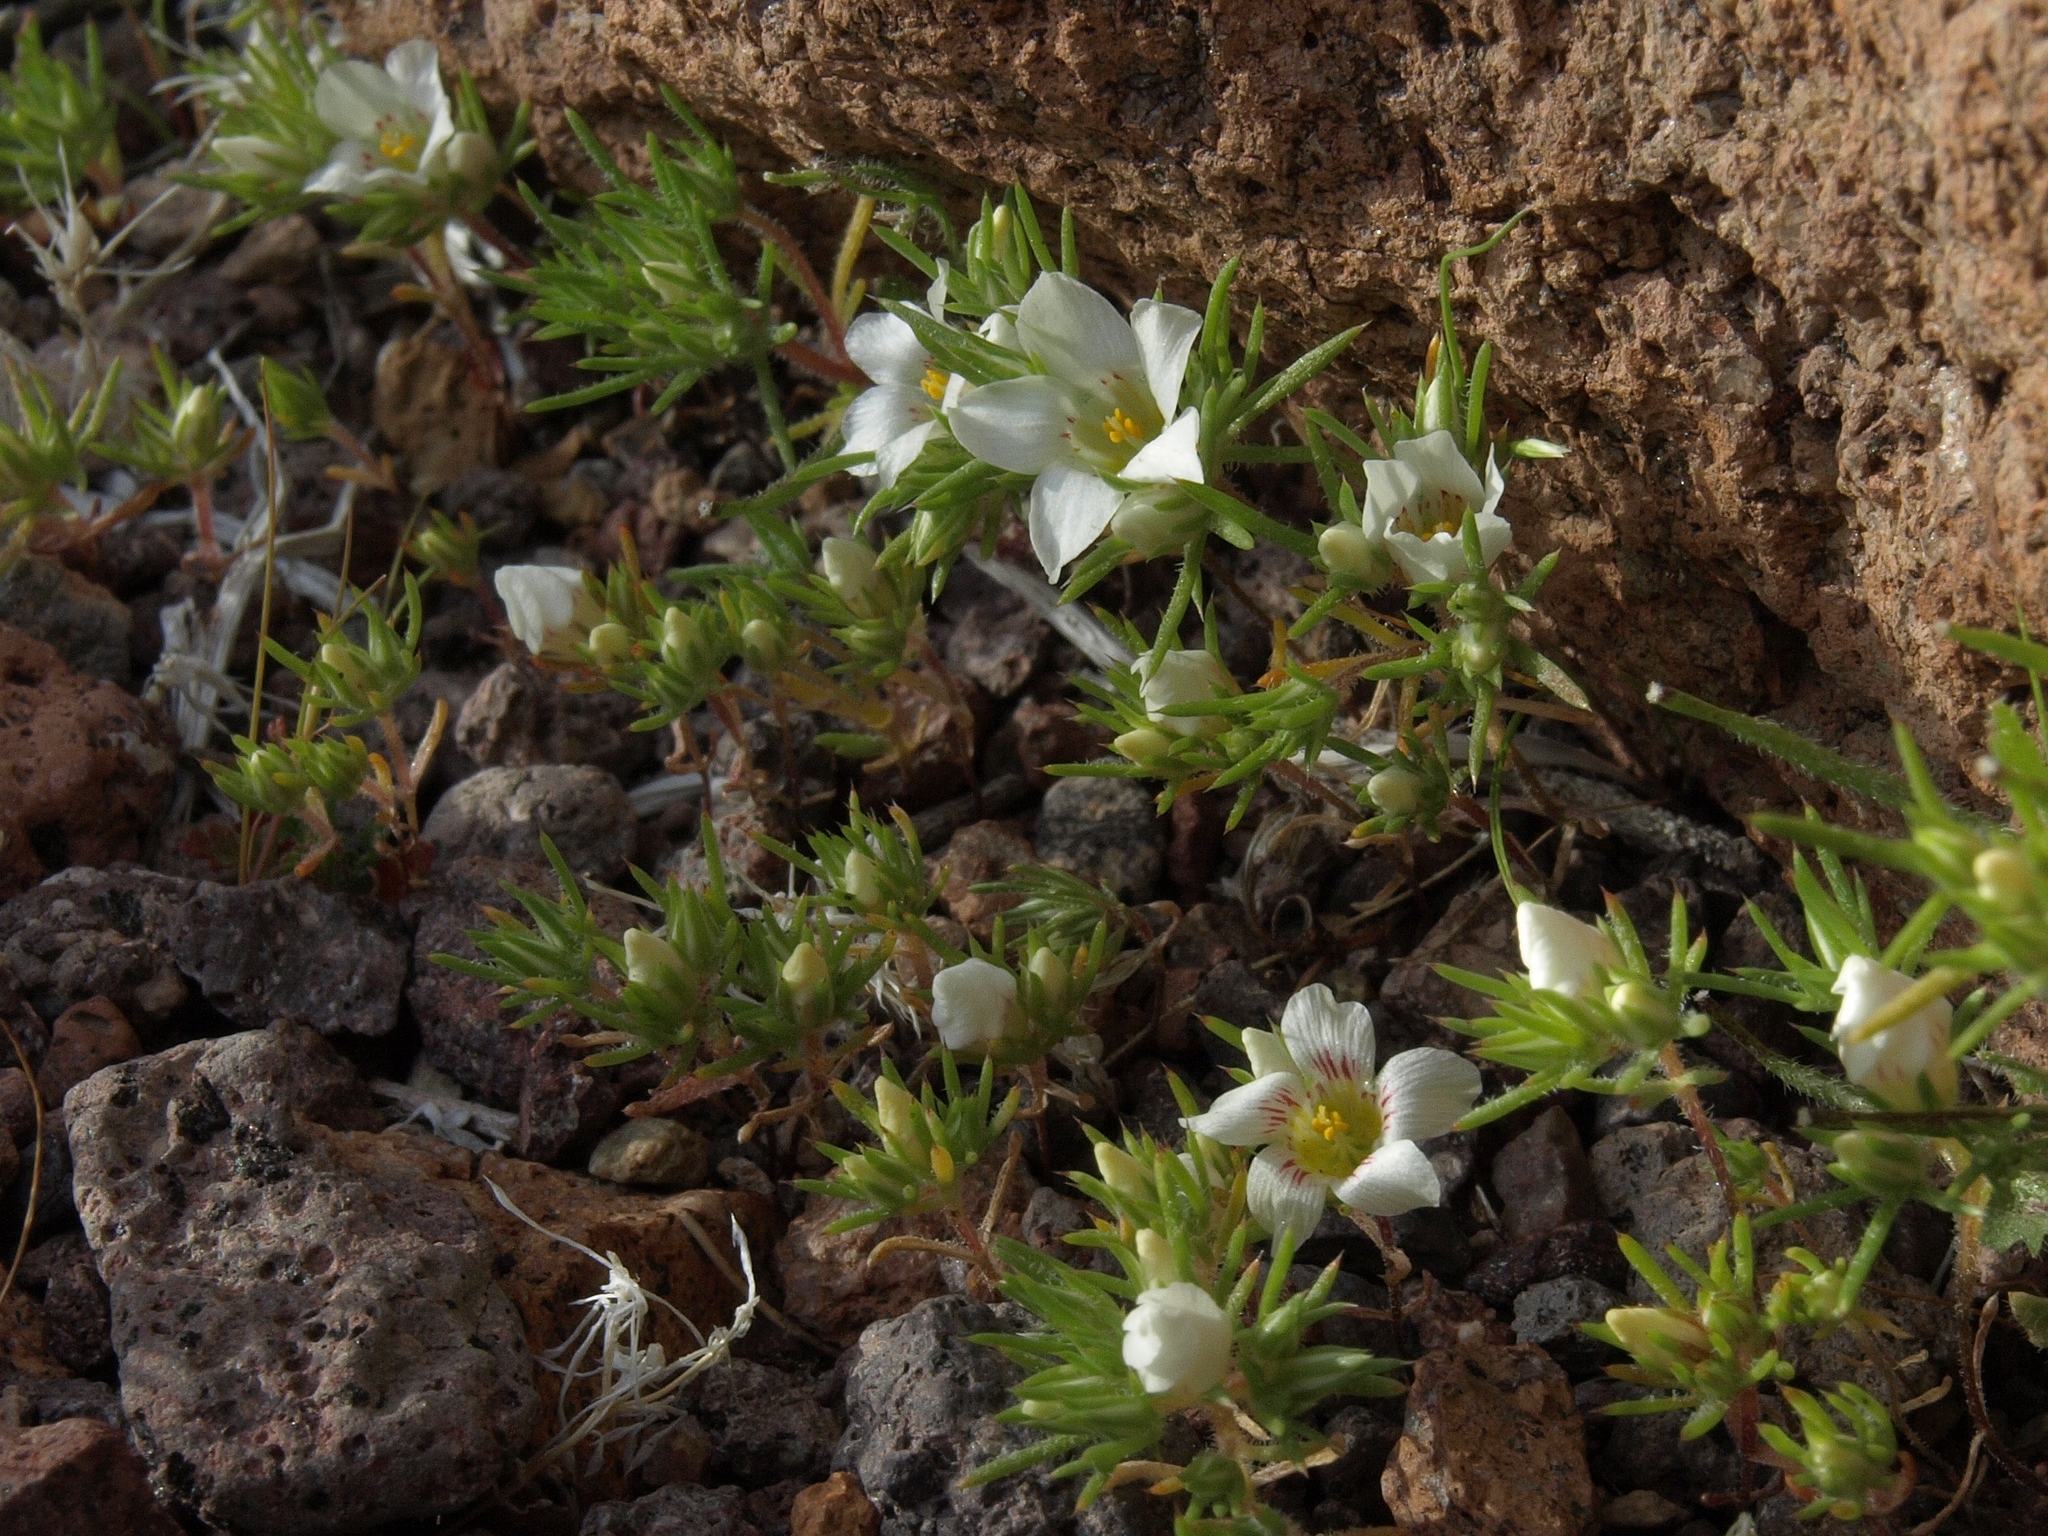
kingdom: Plantae
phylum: Tracheophyta
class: Magnoliopsida
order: Ericales
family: Polemoniaceae
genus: Linanthus
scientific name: Linanthus demissus
